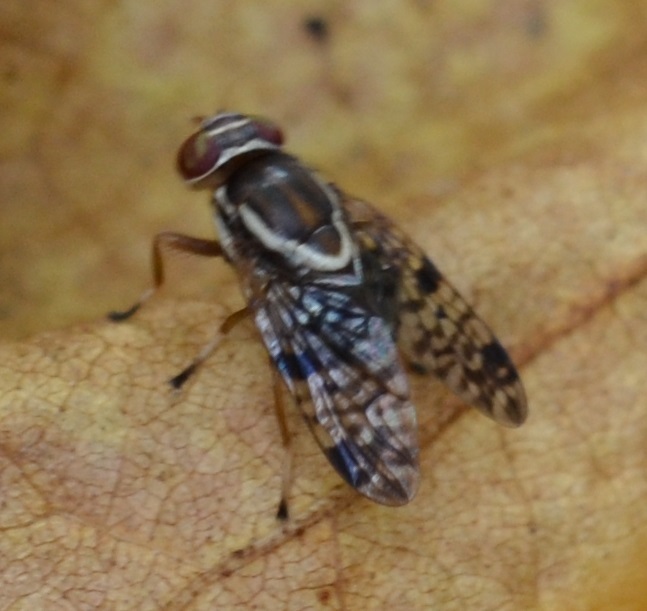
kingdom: Animalia
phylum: Arthropoda
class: Insecta
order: Diptera
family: Platystomatidae
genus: Scholastes
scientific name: Scholastes bimaculatus
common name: Picture-winged fly
